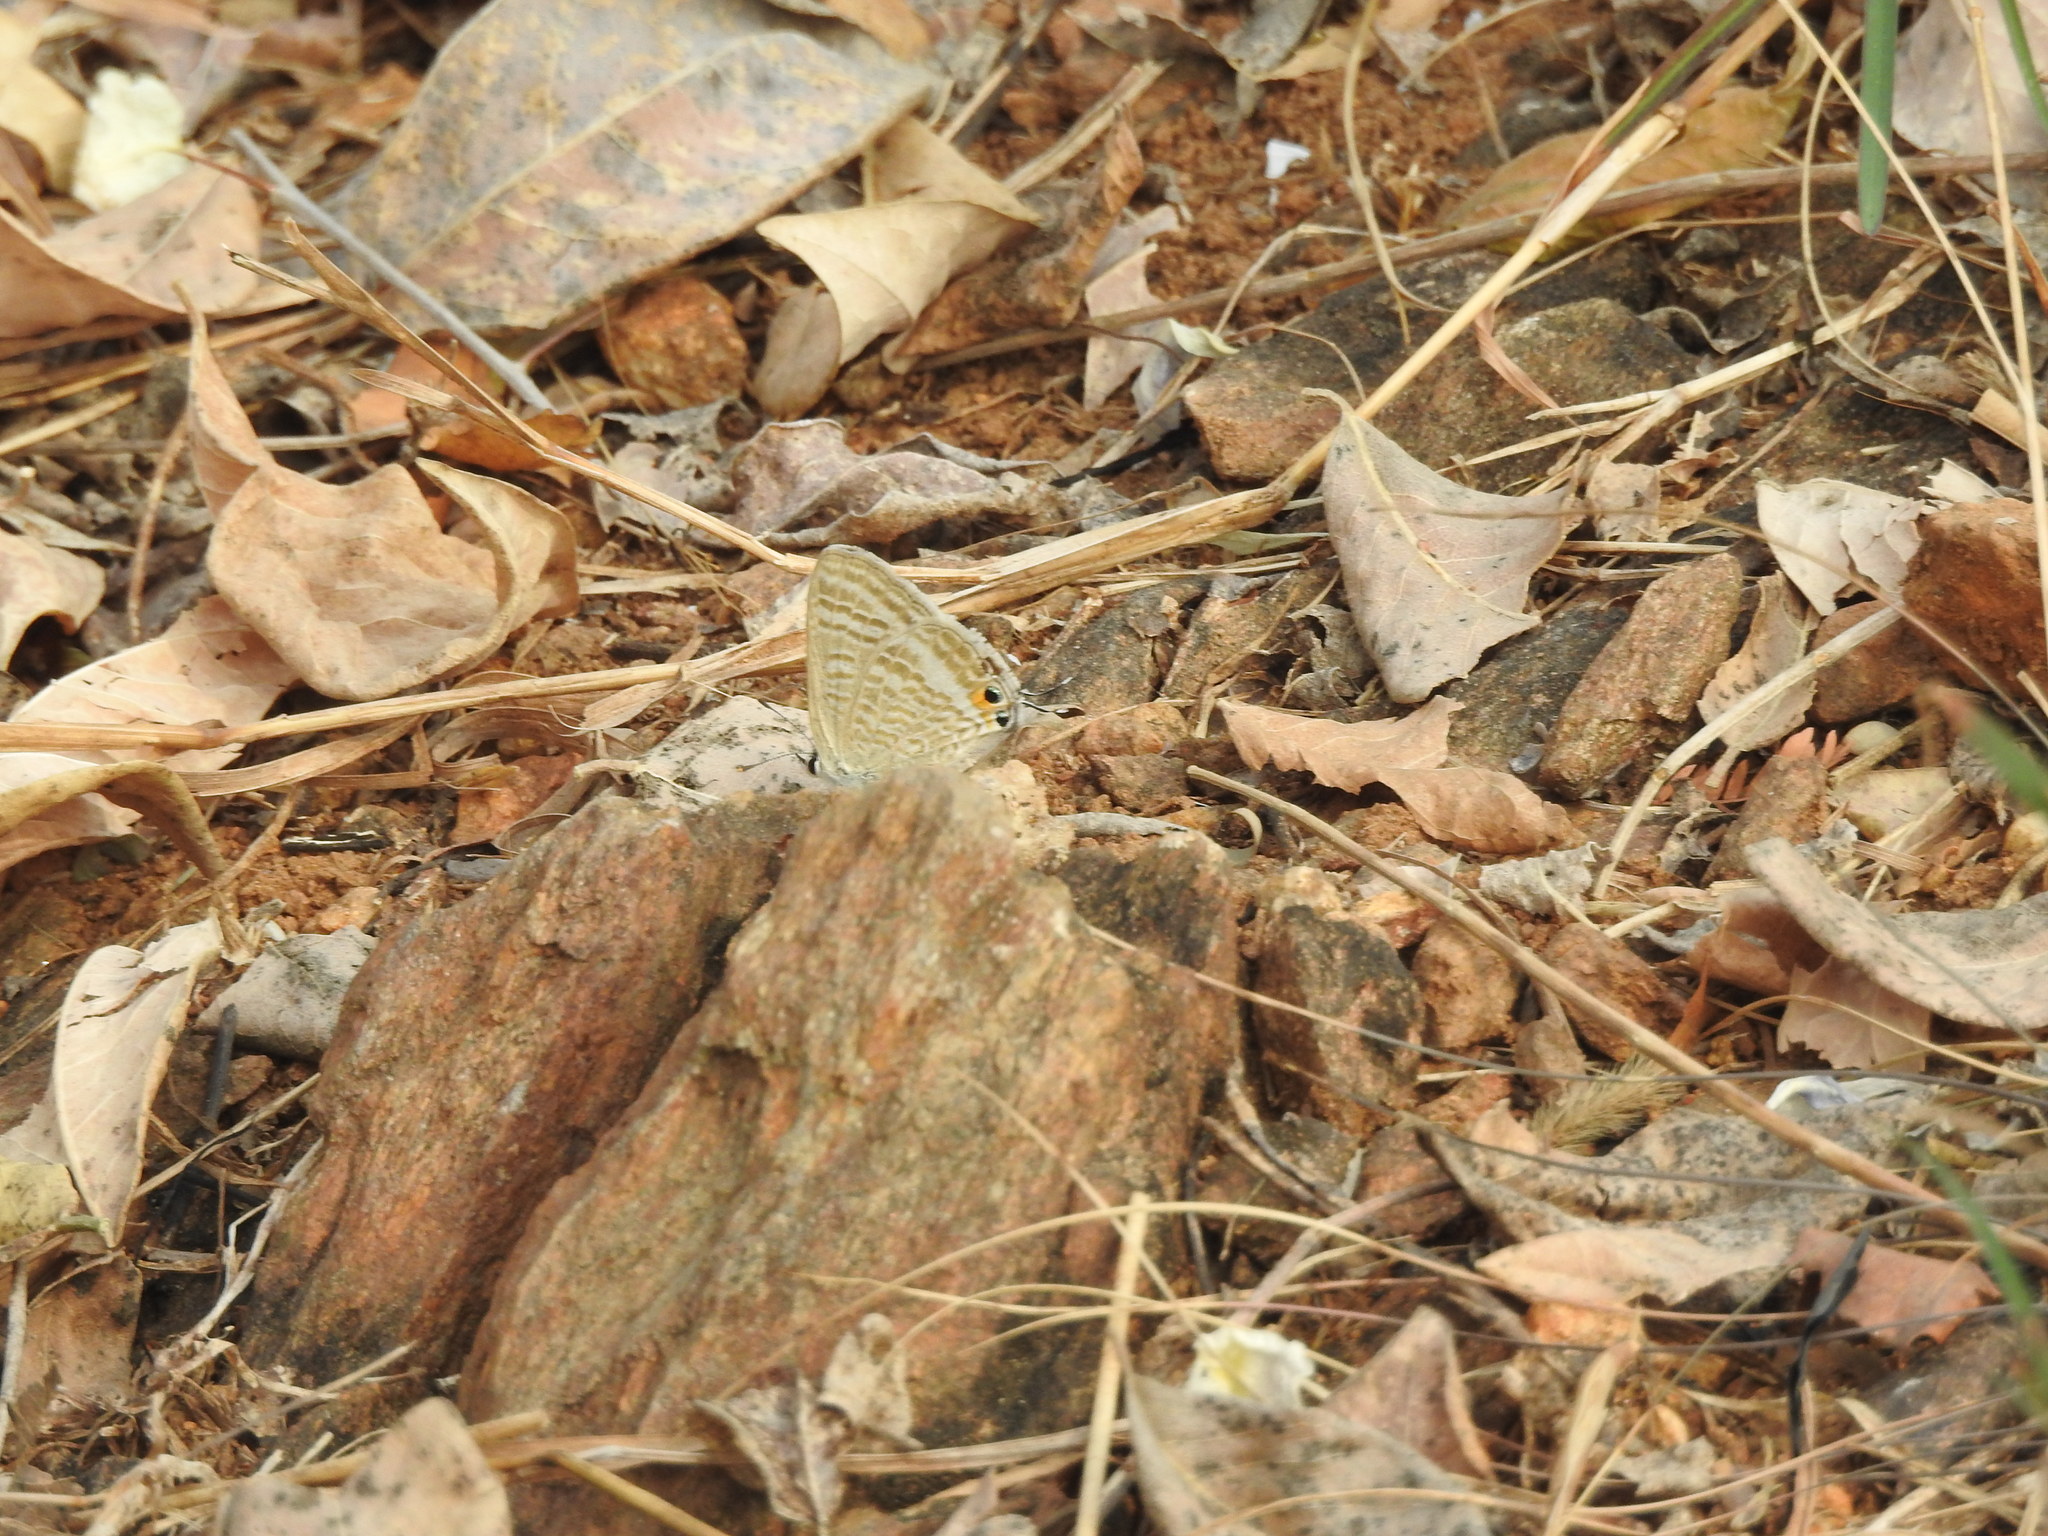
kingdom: Animalia
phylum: Arthropoda
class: Insecta
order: Lepidoptera
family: Lycaenidae
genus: Lampides
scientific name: Lampides boeticus
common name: Long-tailed blue
